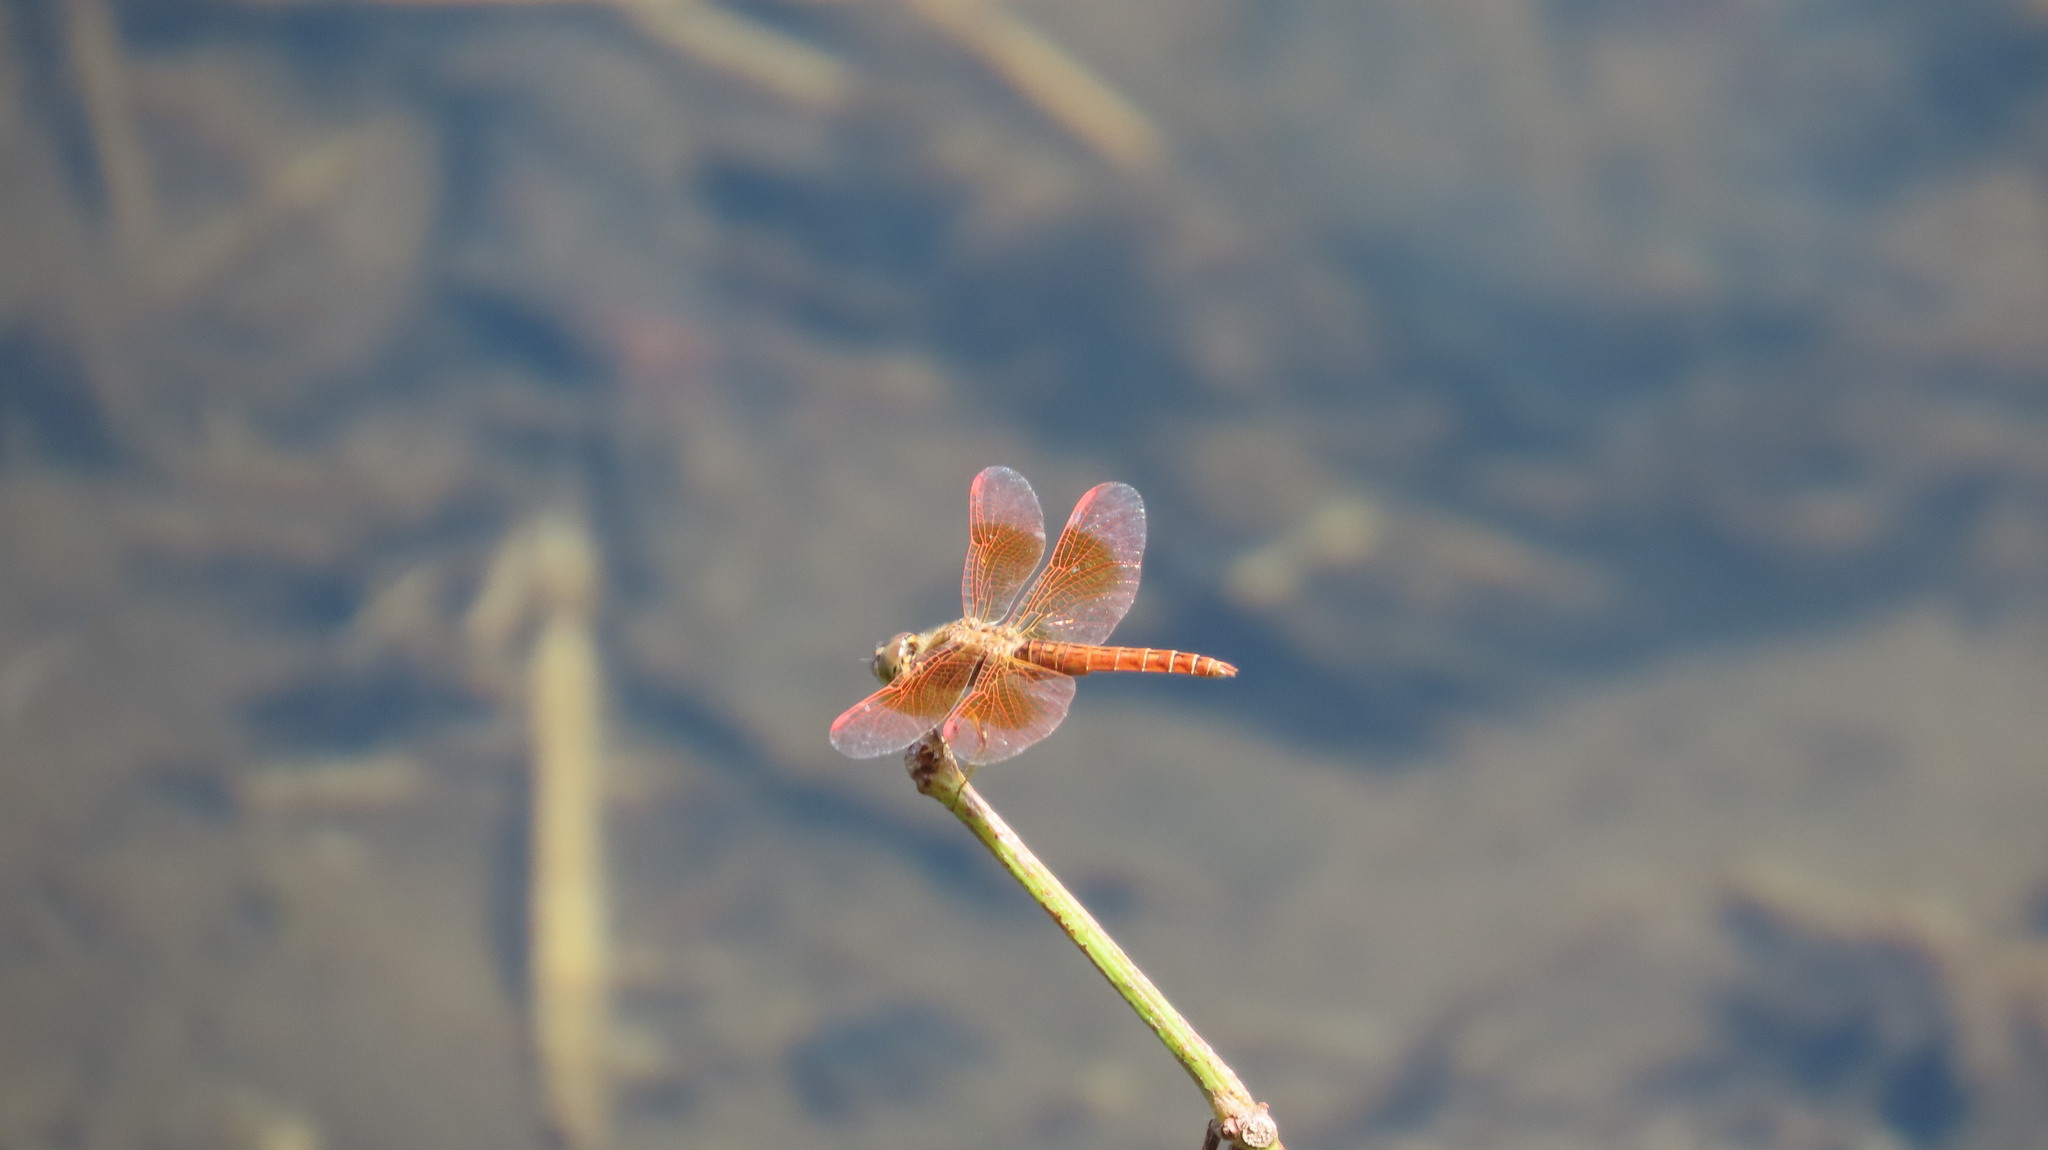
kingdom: Animalia
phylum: Arthropoda
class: Insecta
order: Odonata
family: Libellulidae
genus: Brachythemis
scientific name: Brachythemis contaminata
